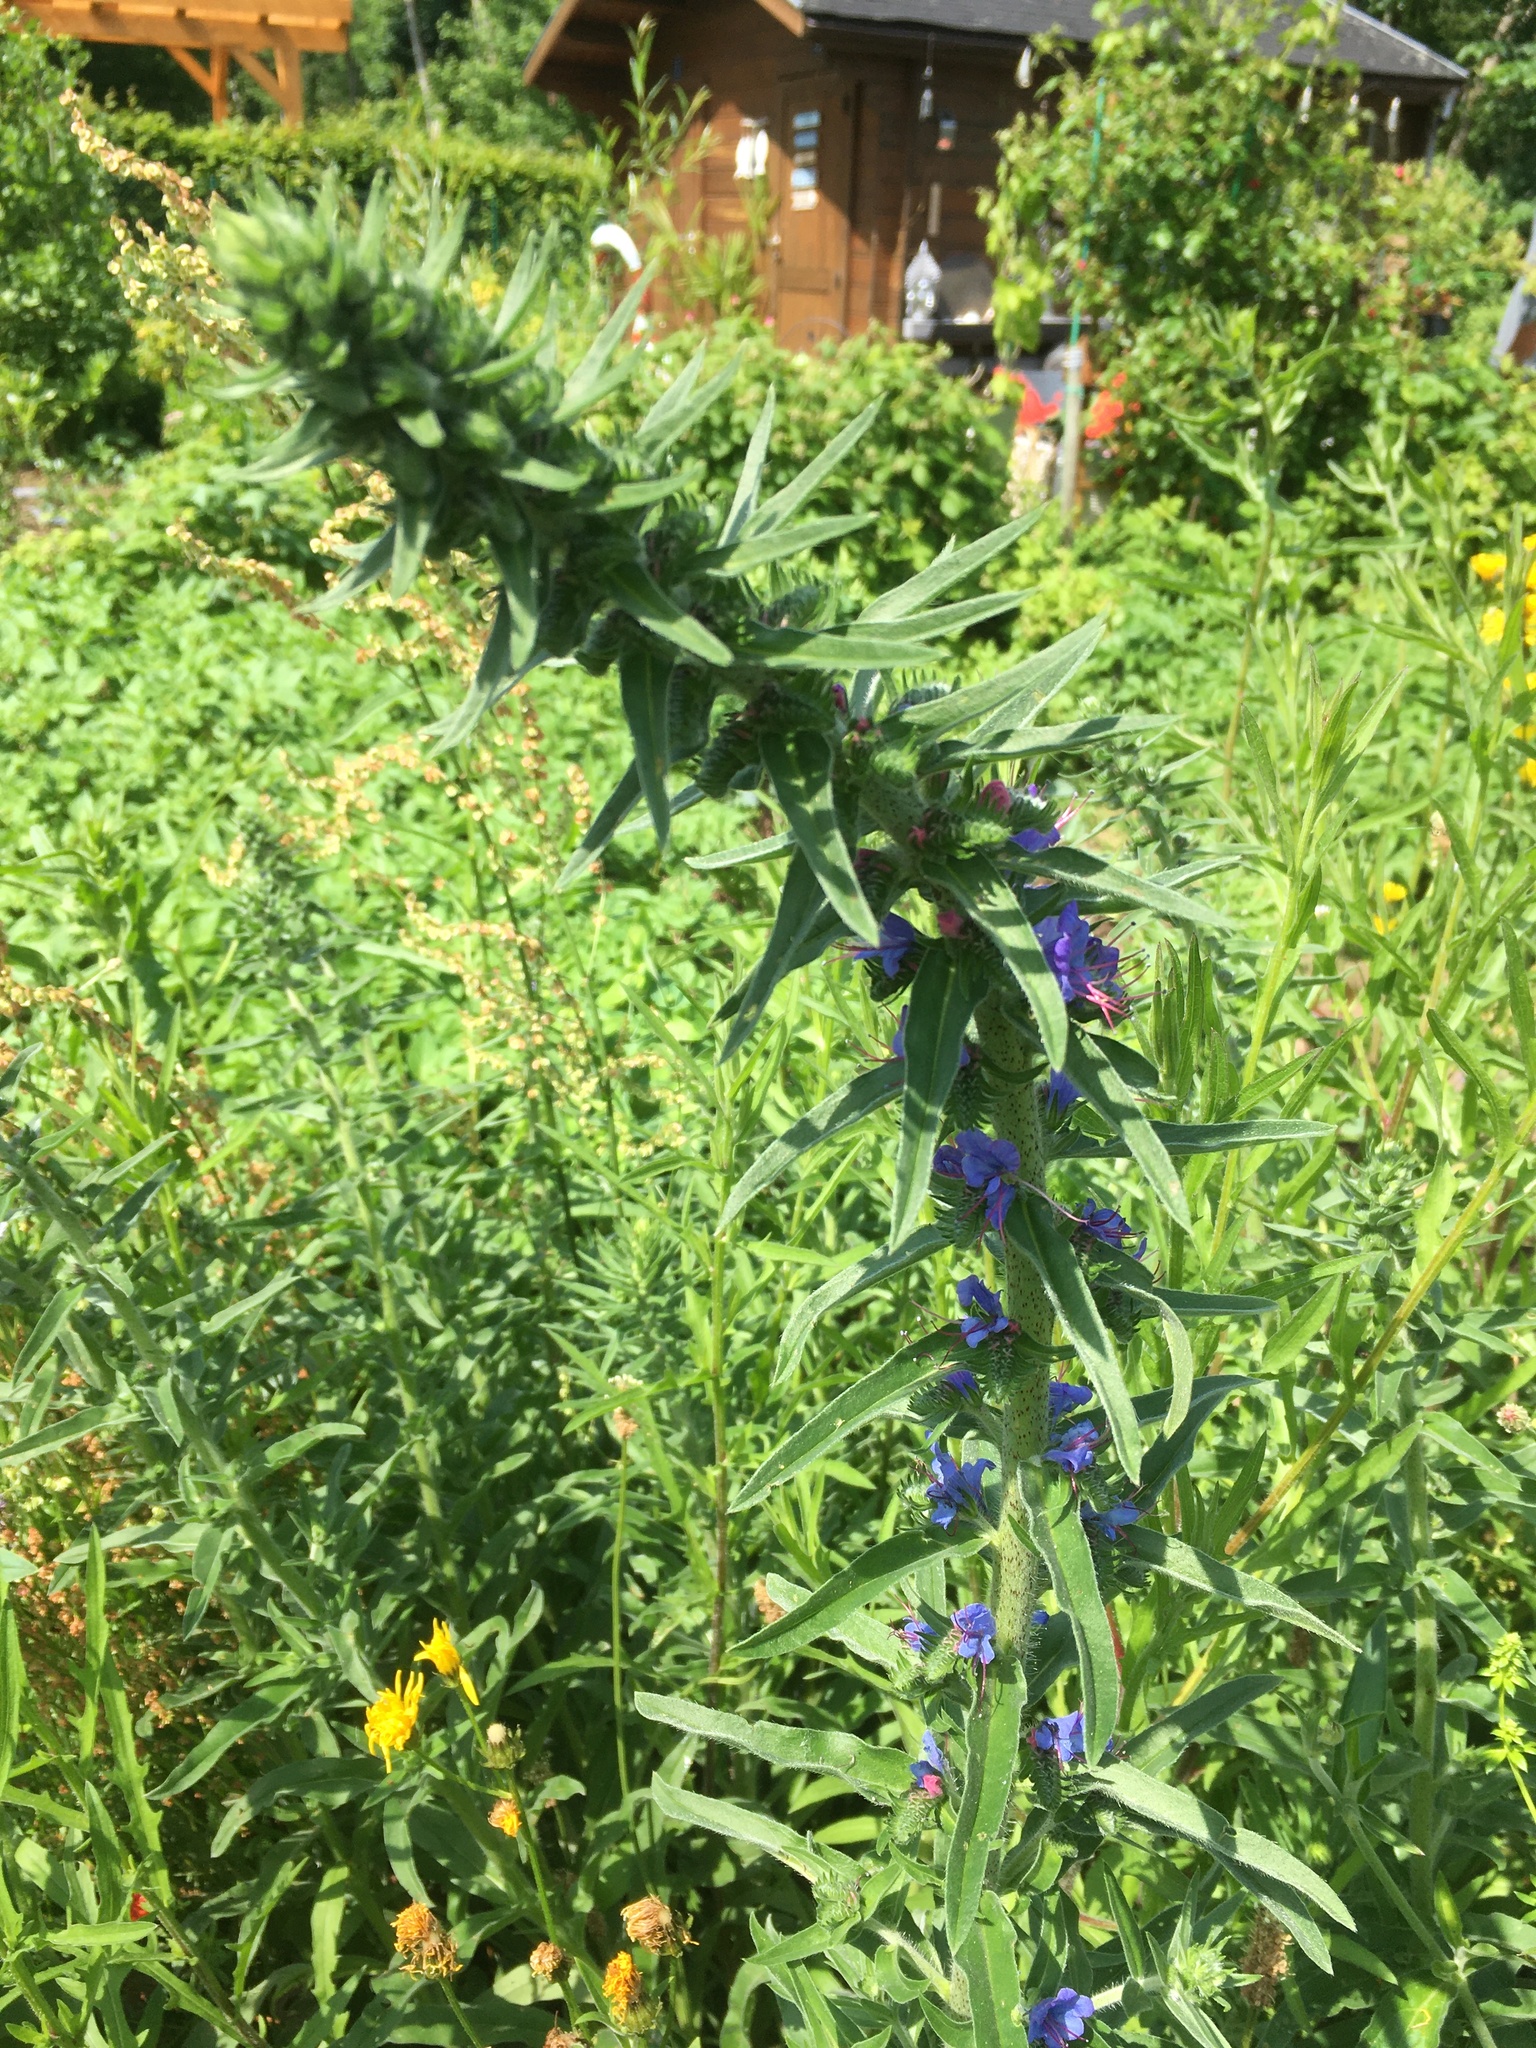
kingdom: Plantae
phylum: Tracheophyta
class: Magnoliopsida
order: Boraginales
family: Boraginaceae
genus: Echium
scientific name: Echium vulgare
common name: Common viper's bugloss
